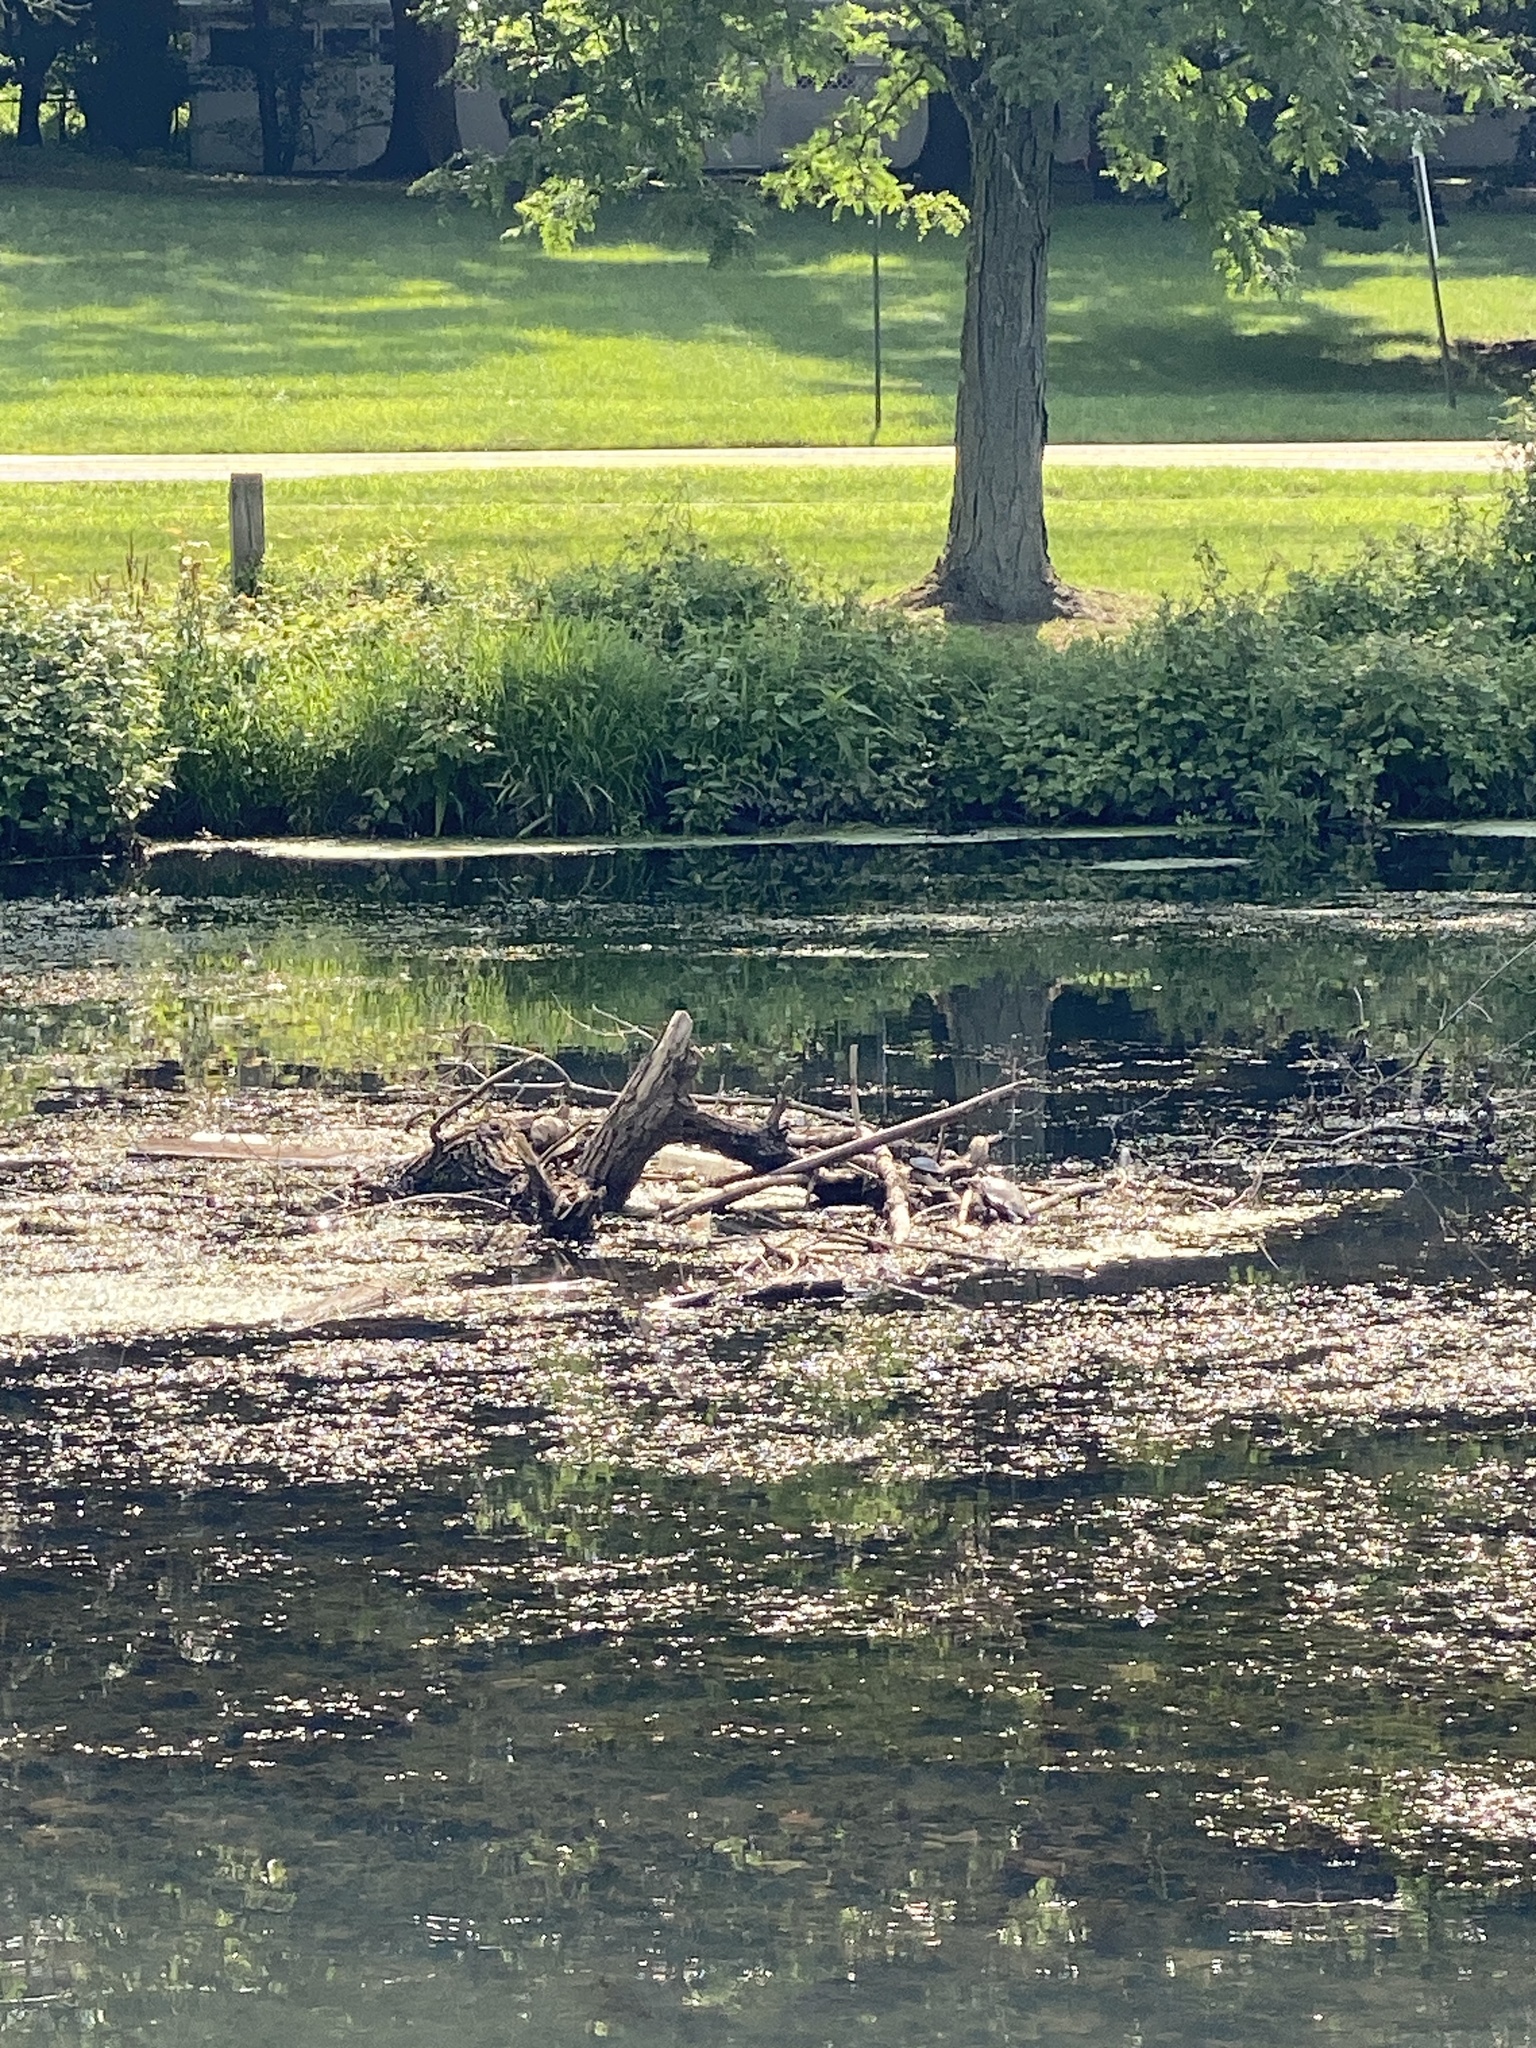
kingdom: Animalia
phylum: Chordata
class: Testudines
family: Emydidae
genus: Chrysemys
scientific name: Chrysemys picta
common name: Painted turtle
